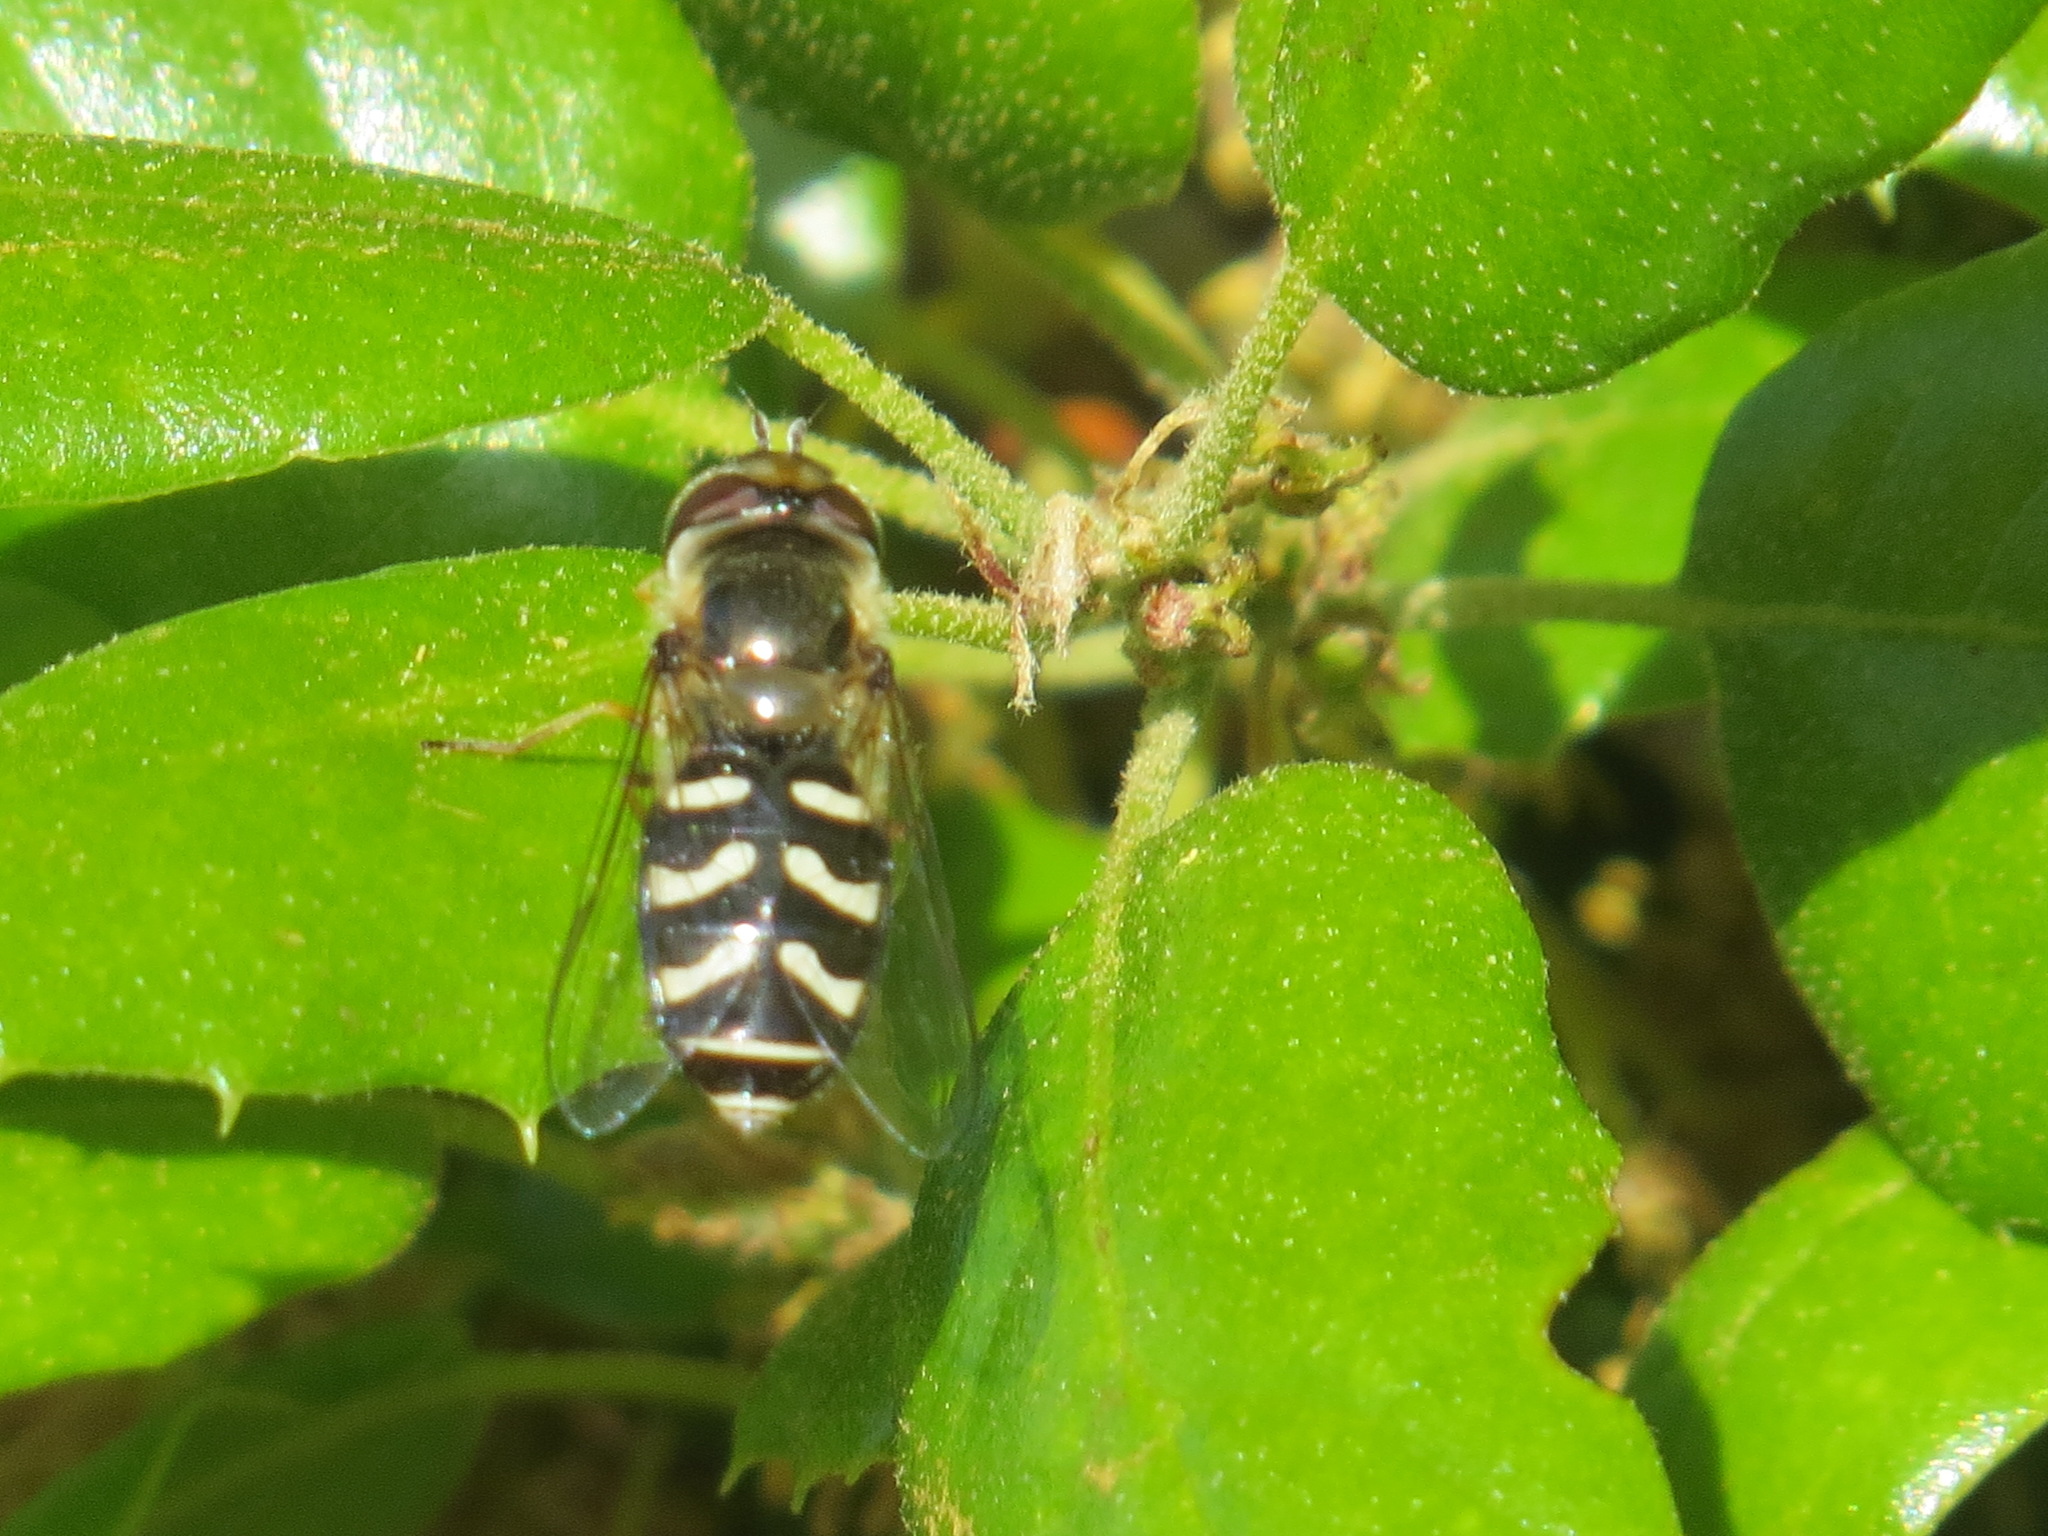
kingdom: Animalia
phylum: Arthropoda
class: Insecta
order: Diptera
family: Syrphidae
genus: Scaeva
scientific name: Scaeva affinis
